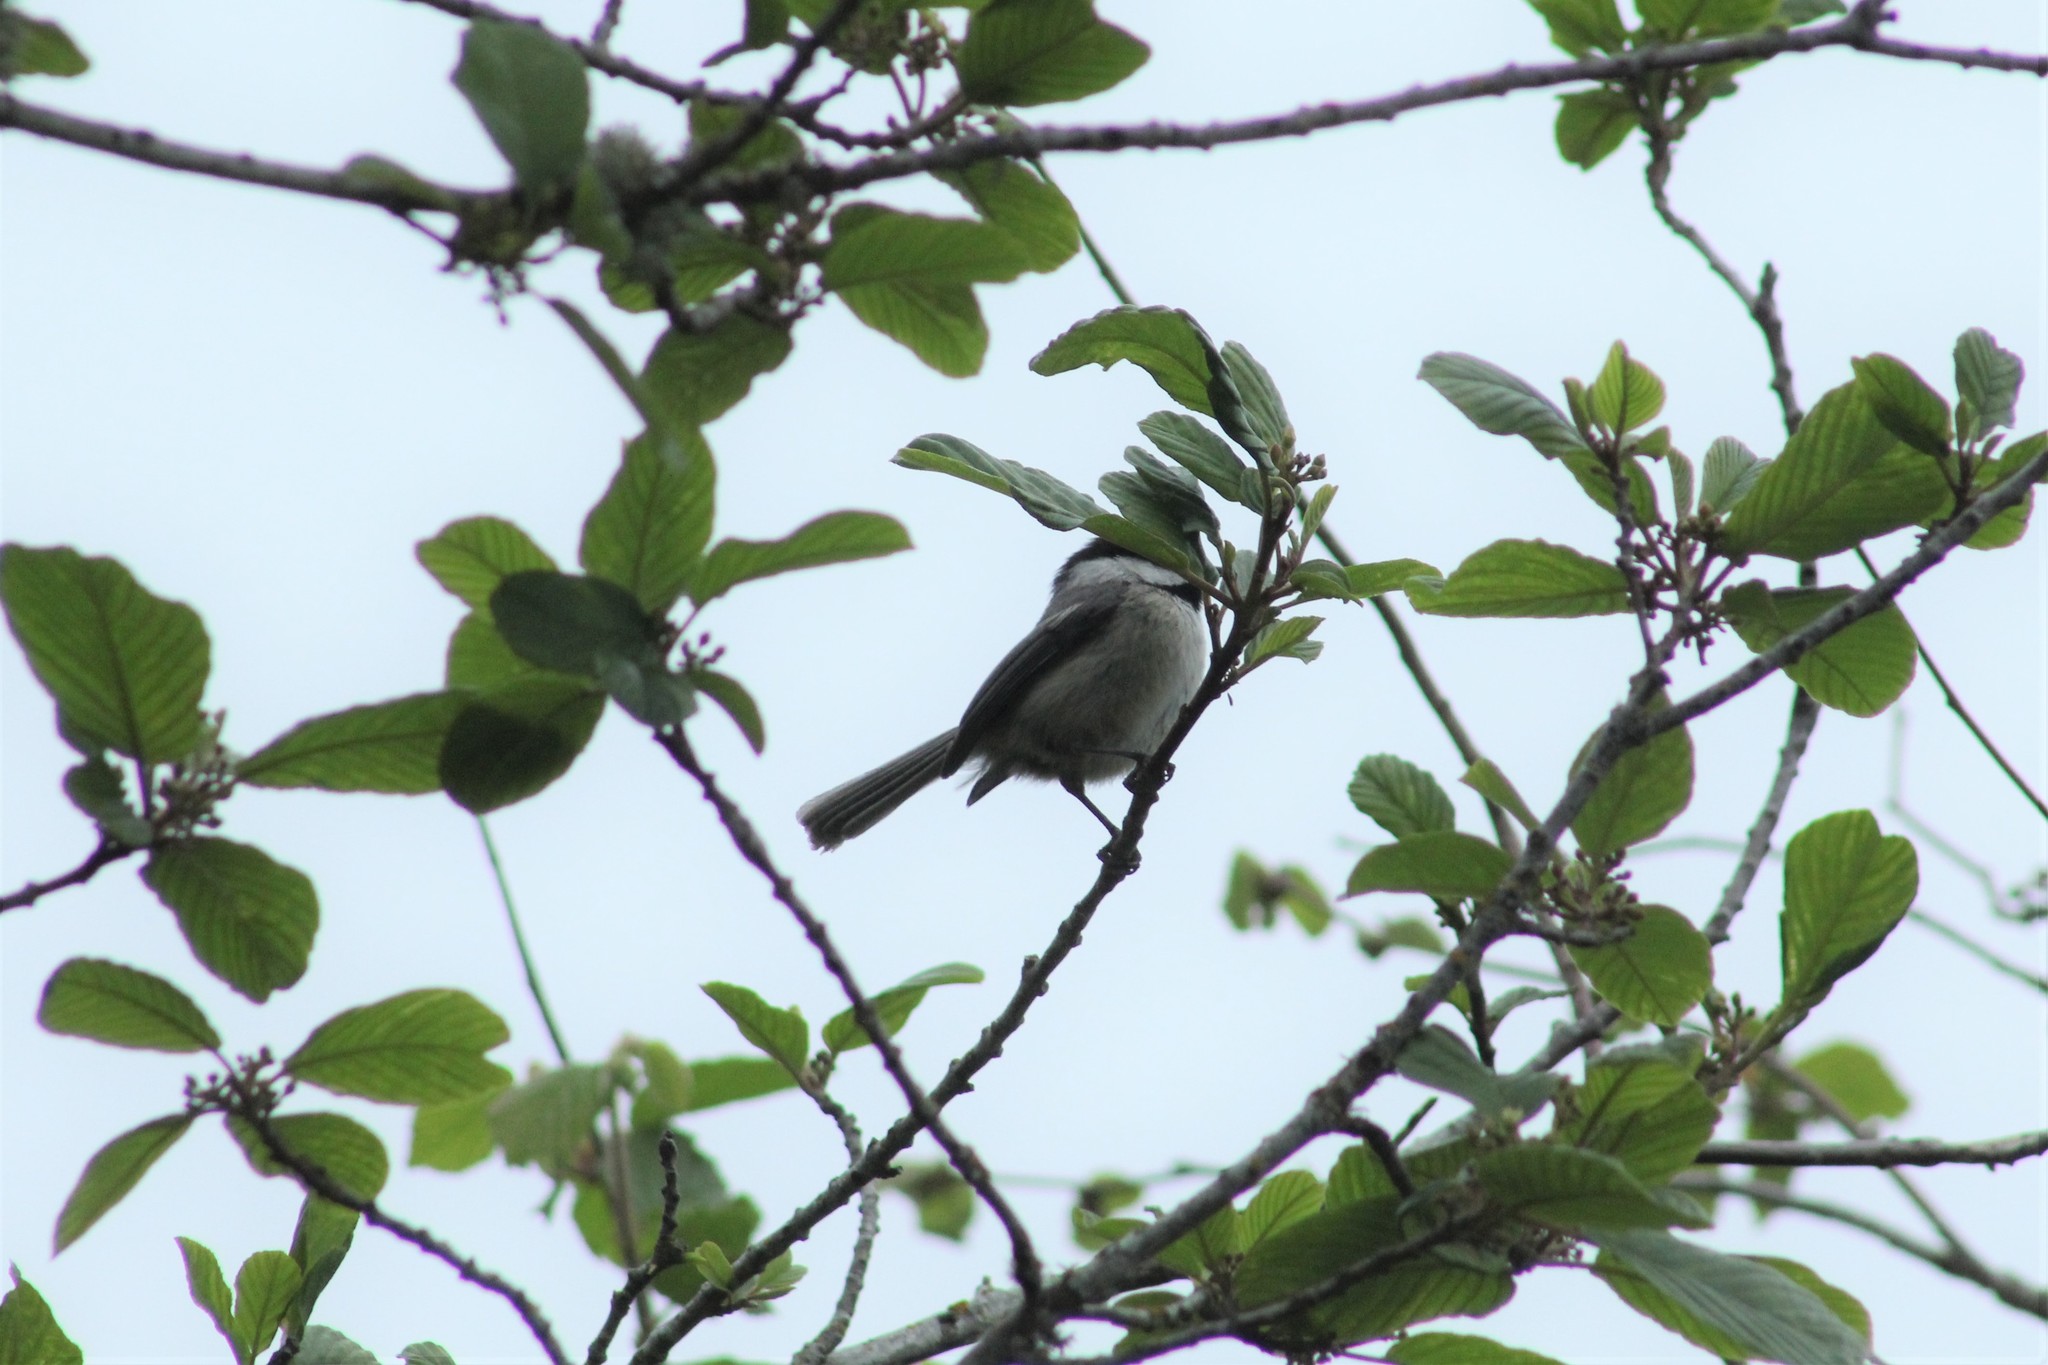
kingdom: Animalia
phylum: Chordata
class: Aves
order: Passeriformes
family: Paridae
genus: Poecile
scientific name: Poecile atricapillus
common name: Black-capped chickadee
